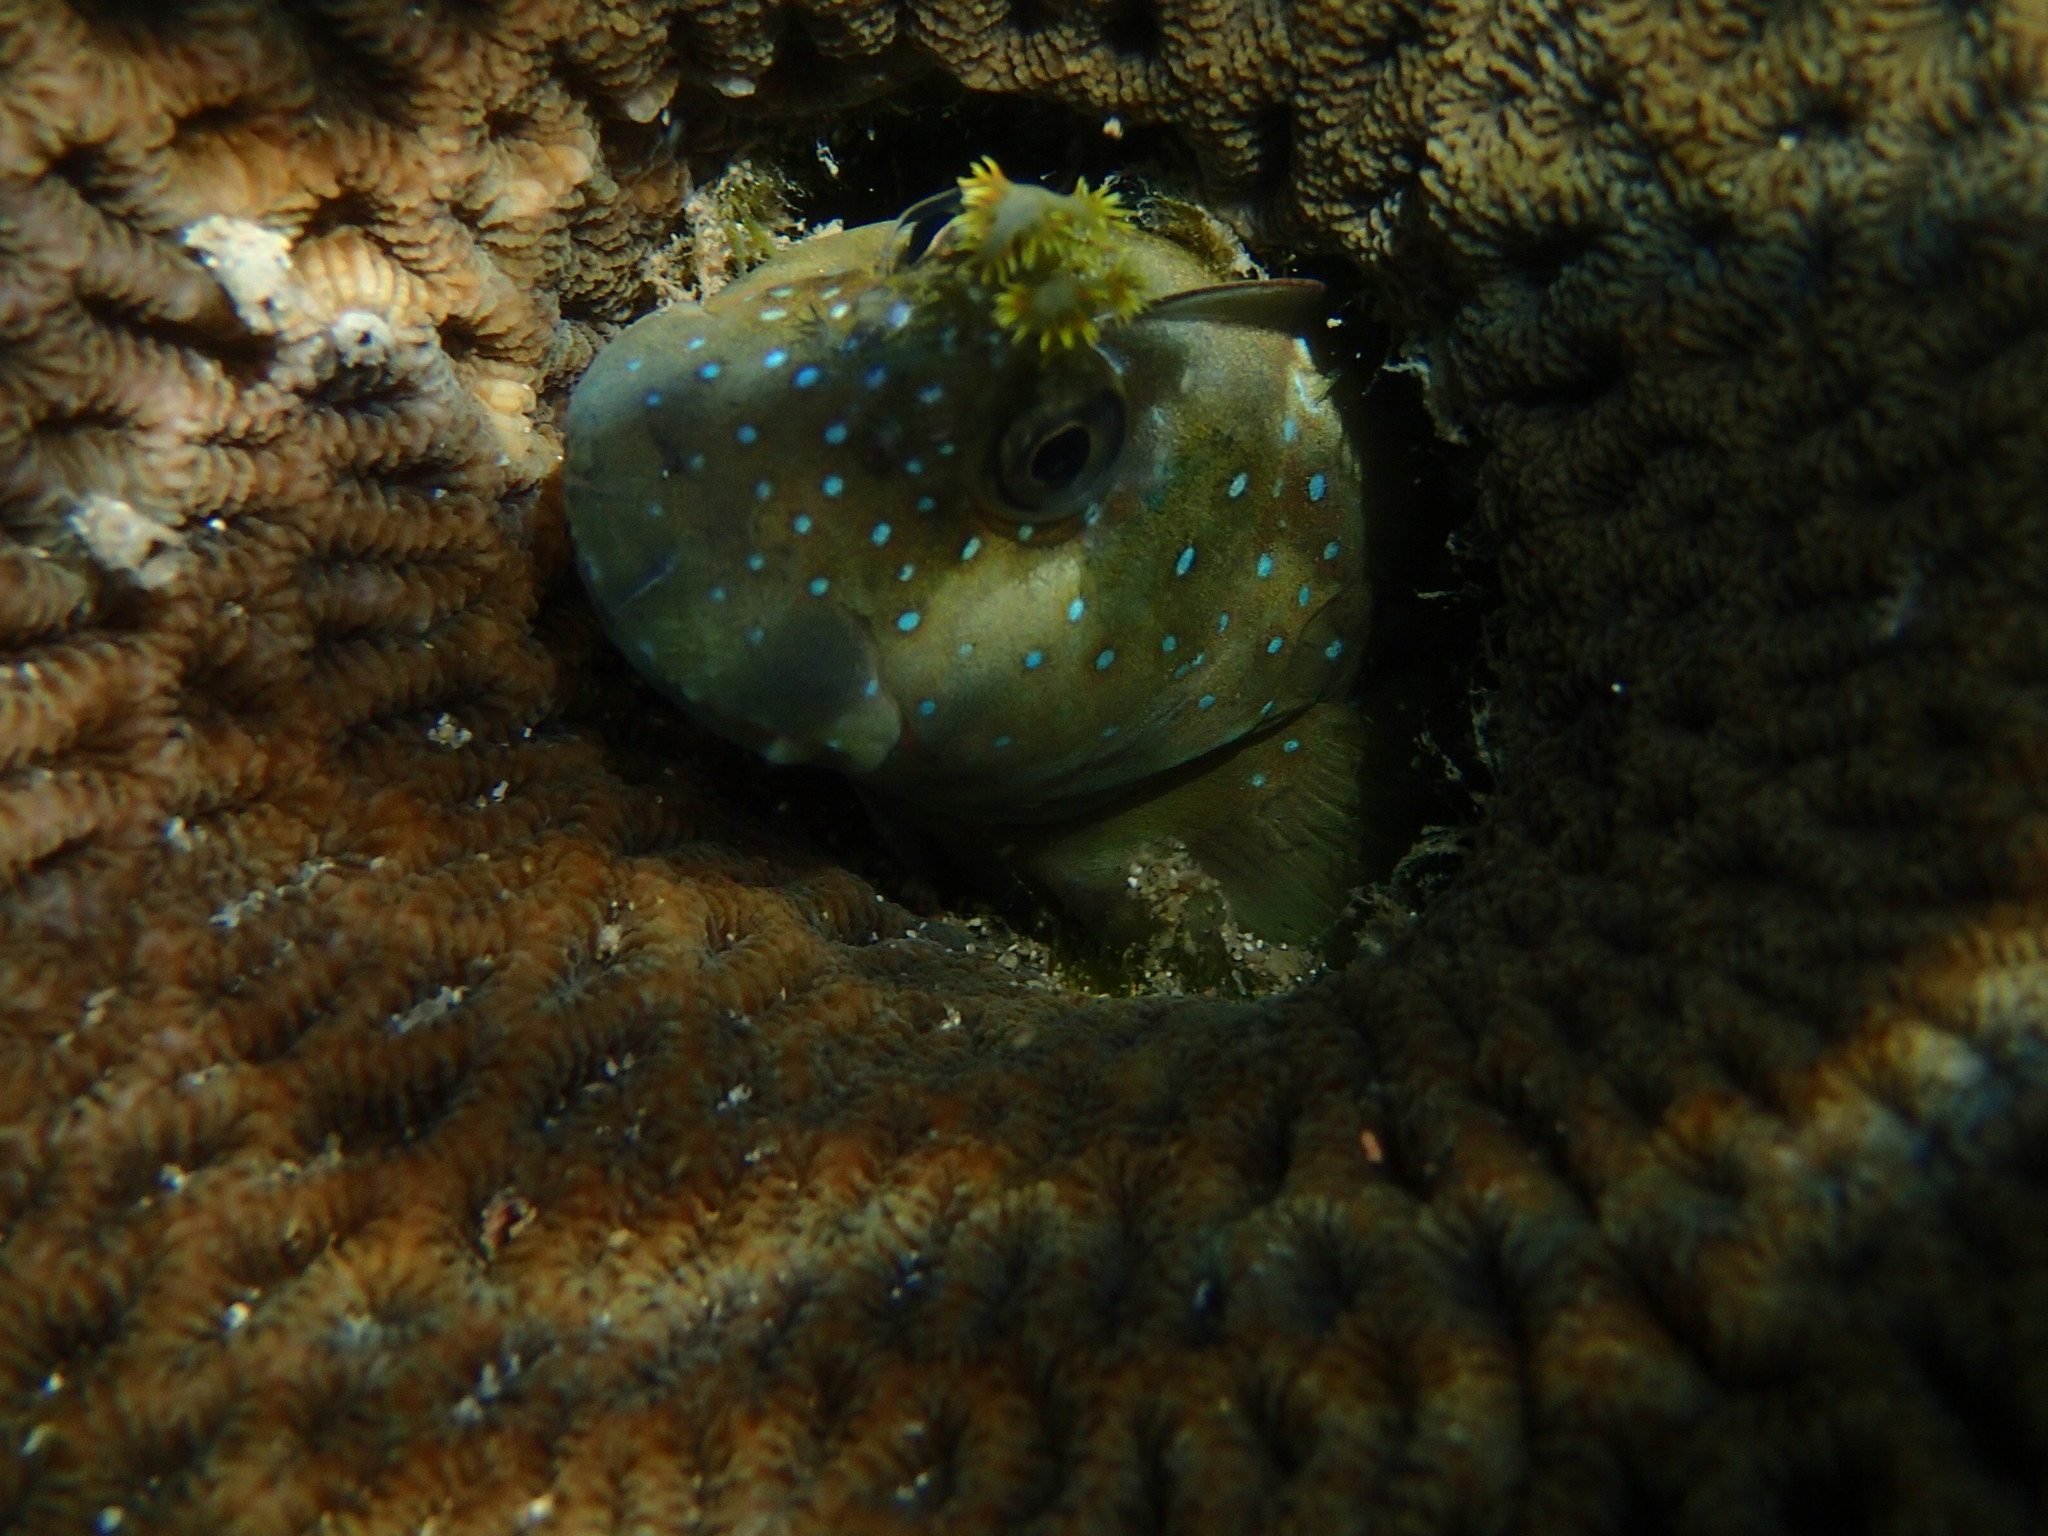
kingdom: Animalia
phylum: Chordata
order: Perciformes
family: Blenniidae
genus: Istiblennius
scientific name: Istiblennius meleagris
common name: Peacock rockskipper
